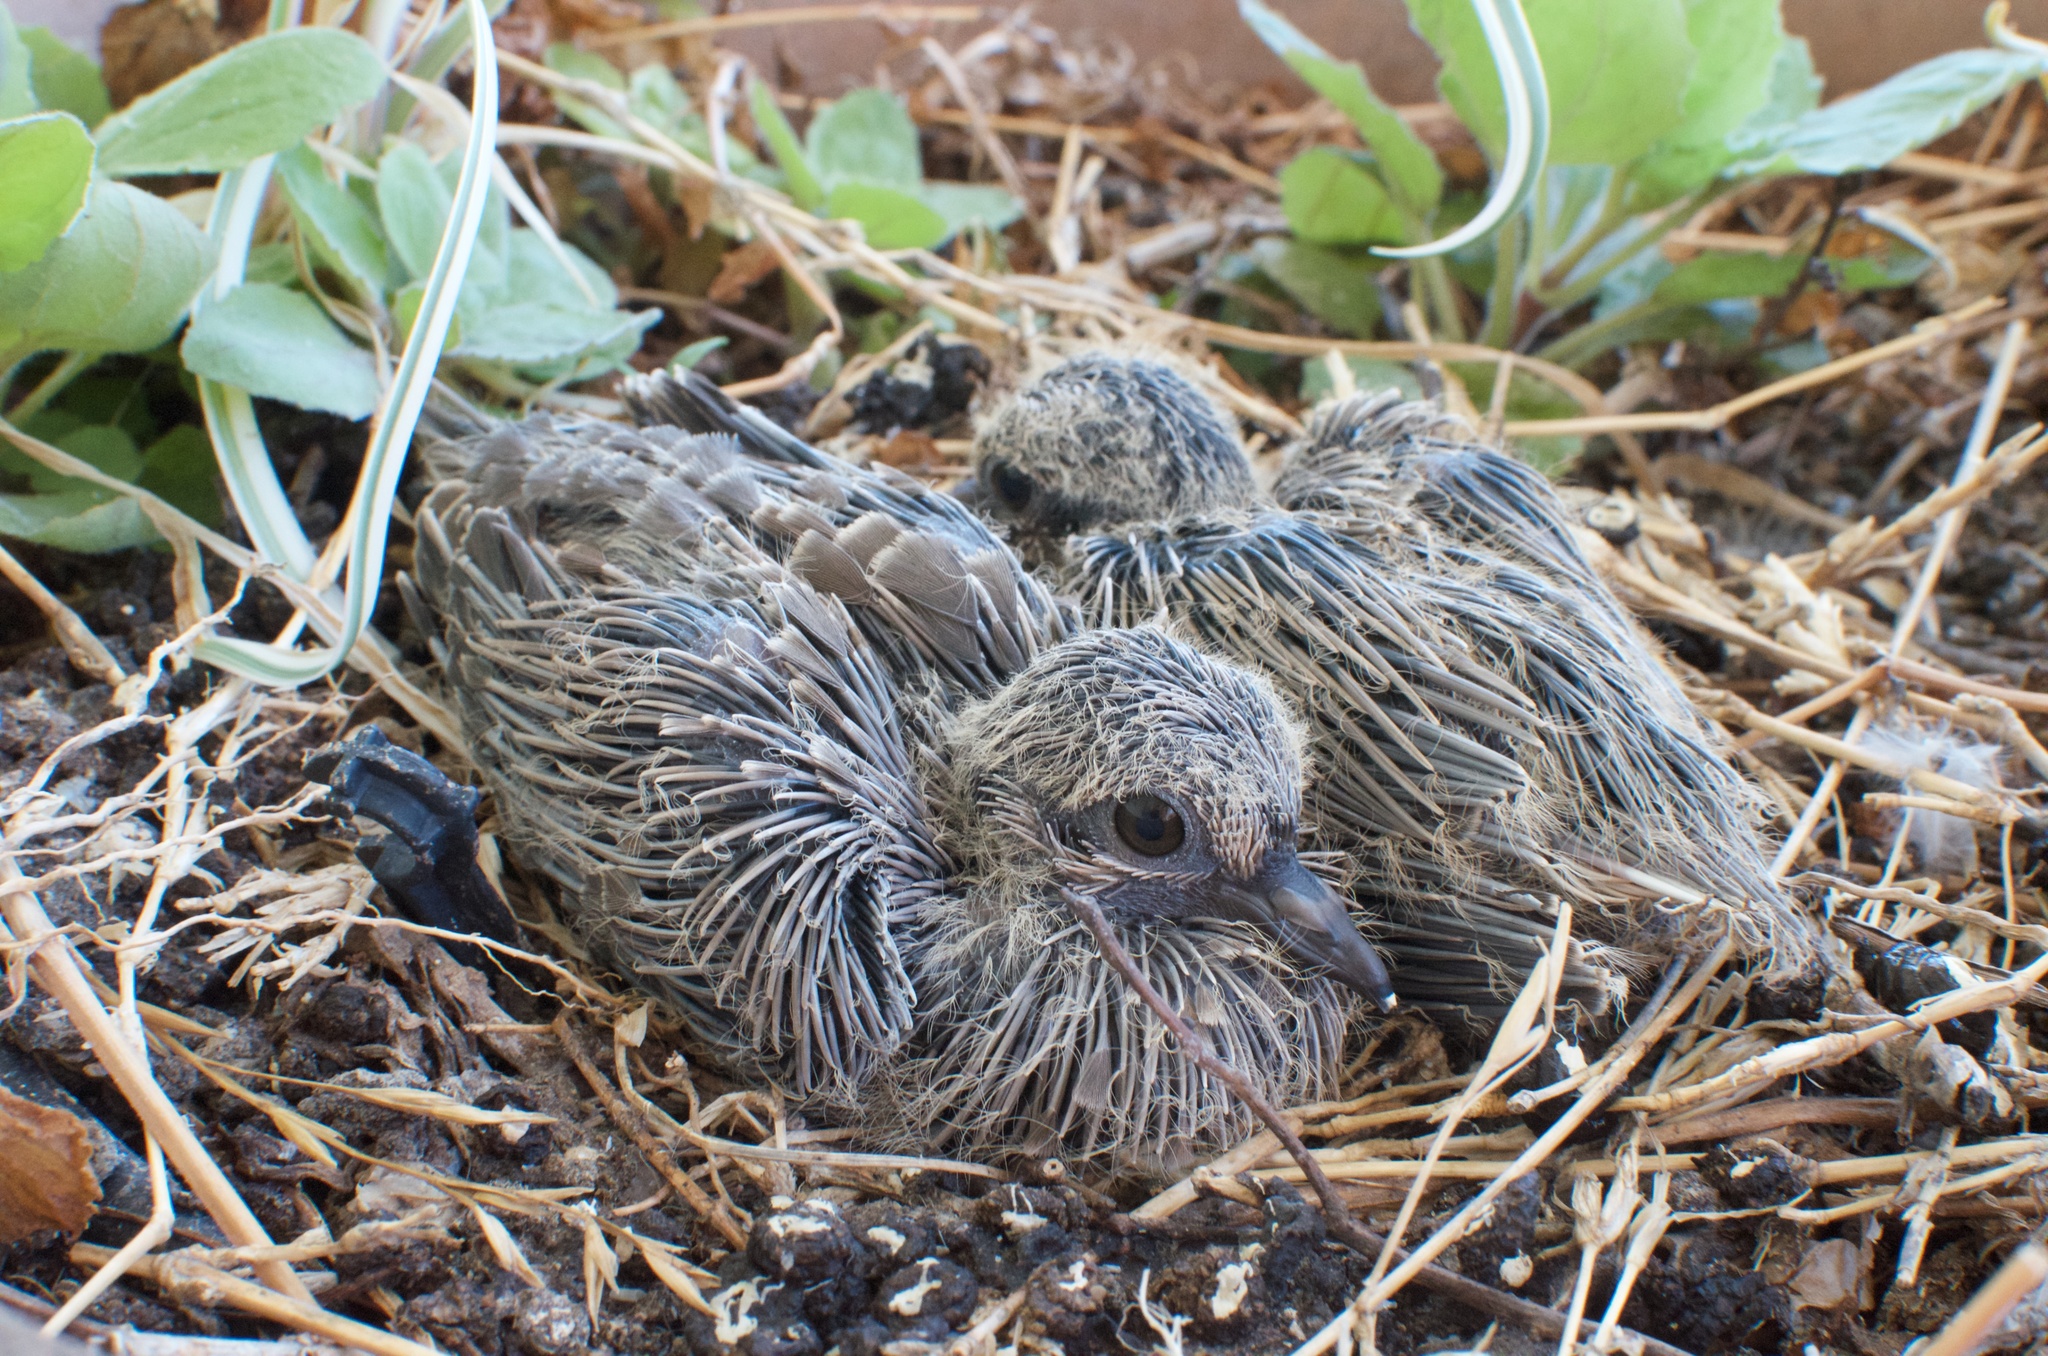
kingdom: Animalia
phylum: Chordata
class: Aves
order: Columbiformes
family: Columbidae
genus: Zenaida
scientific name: Zenaida macroura
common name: Mourning dove
